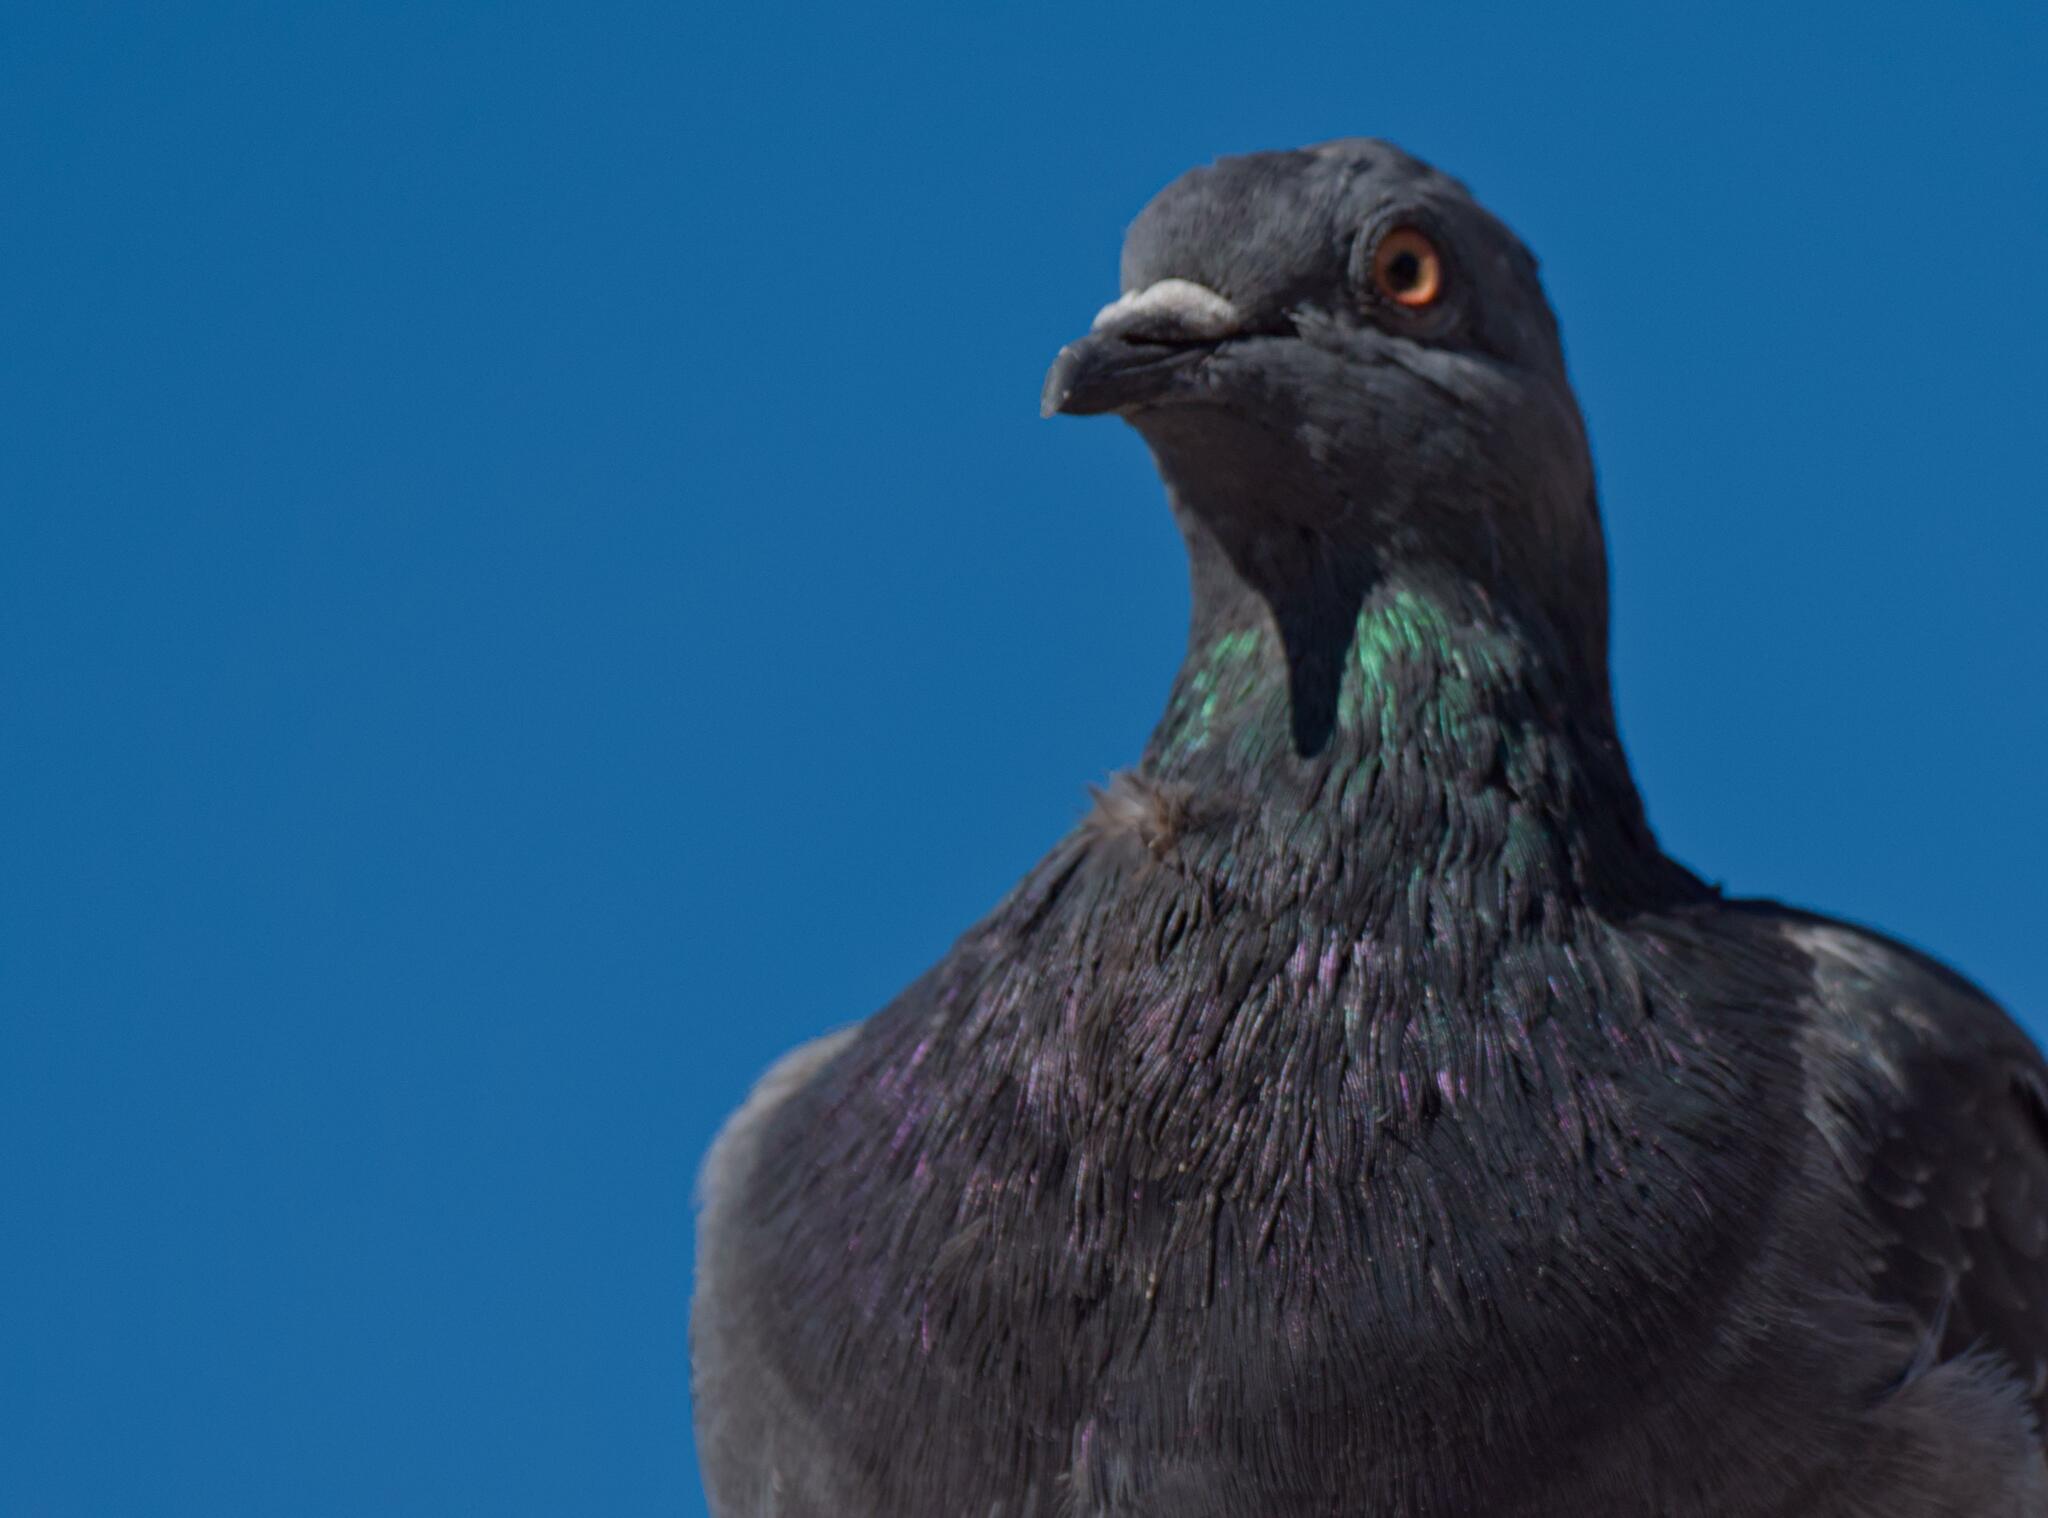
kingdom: Animalia
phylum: Chordata
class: Aves
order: Columbiformes
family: Columbidae
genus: Columba
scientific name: Columba livia
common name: Rock pigeon
